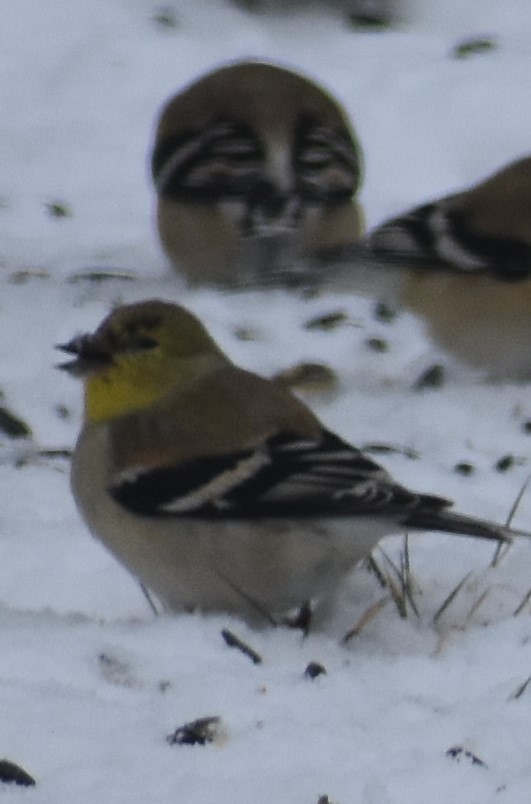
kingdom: Animalia
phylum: Chordata
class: Aves
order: Passeriformes
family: Fringillidae
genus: Spinus
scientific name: Spinus tristis
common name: American goldfinch
